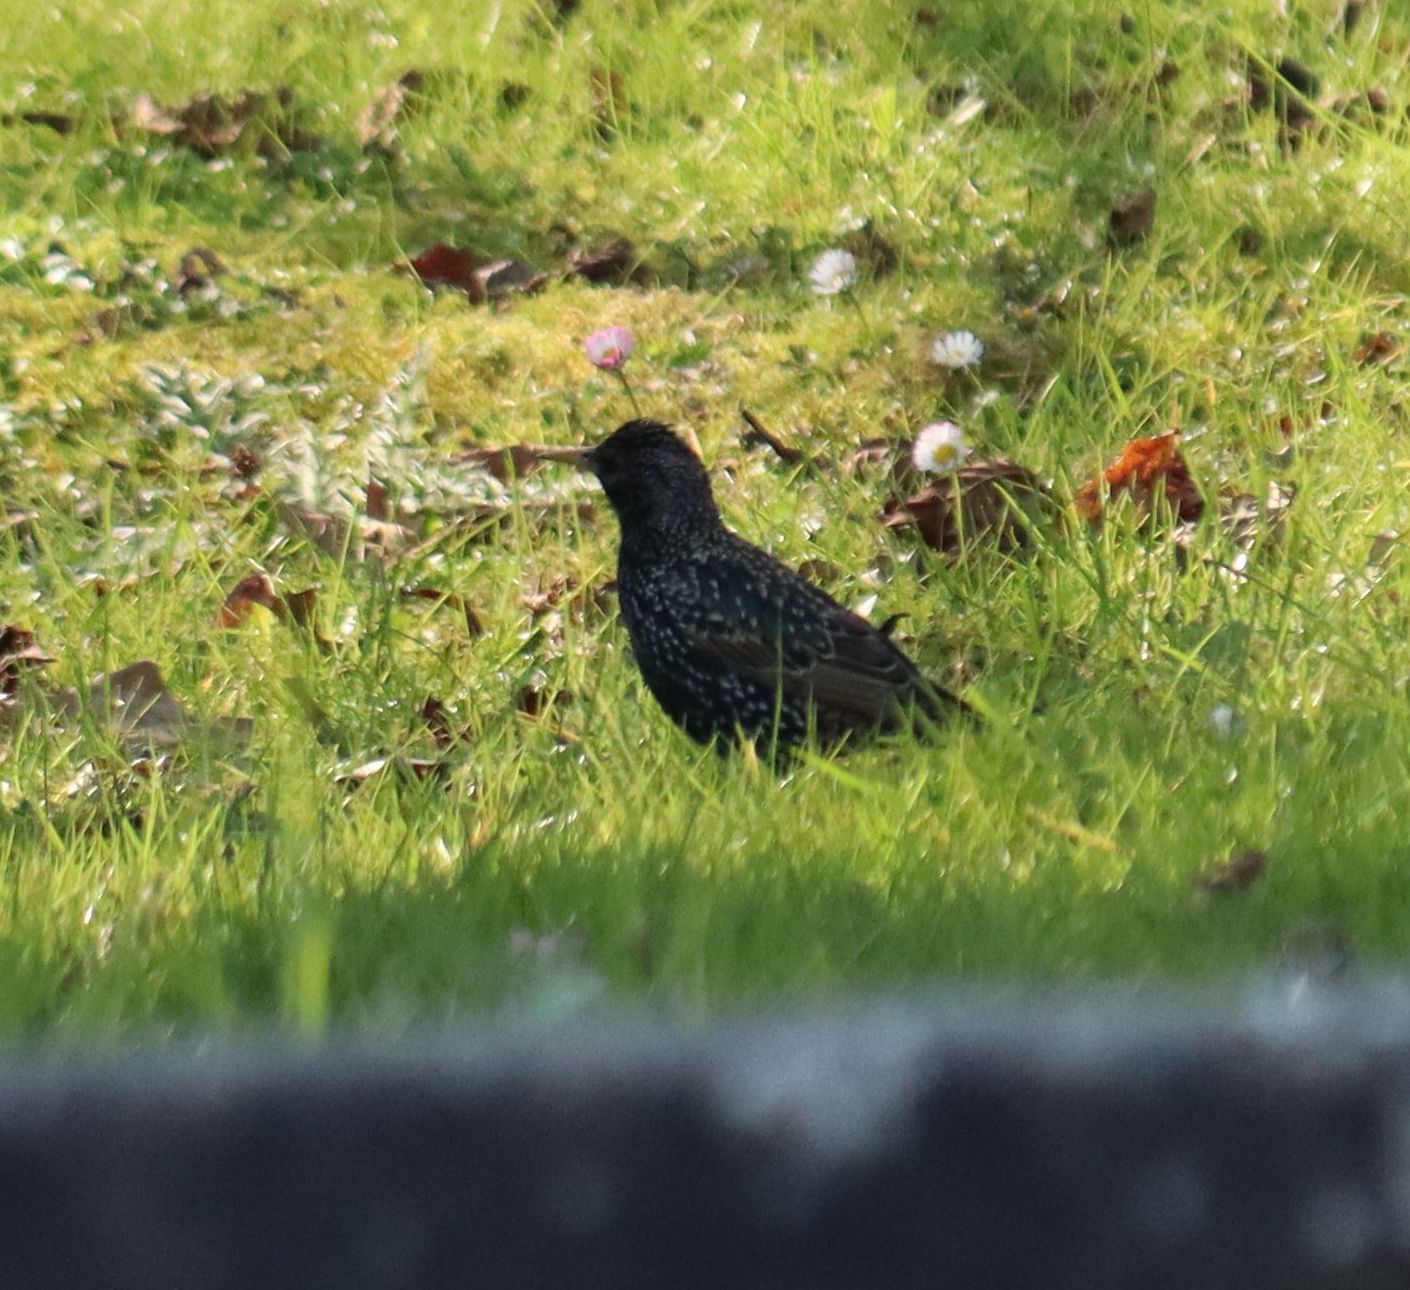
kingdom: Animalia
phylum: Chordata
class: Aves
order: Passeriformes
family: Sturnidae
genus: Sturnus
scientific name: Sturnus vulgaris
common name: Common starling
